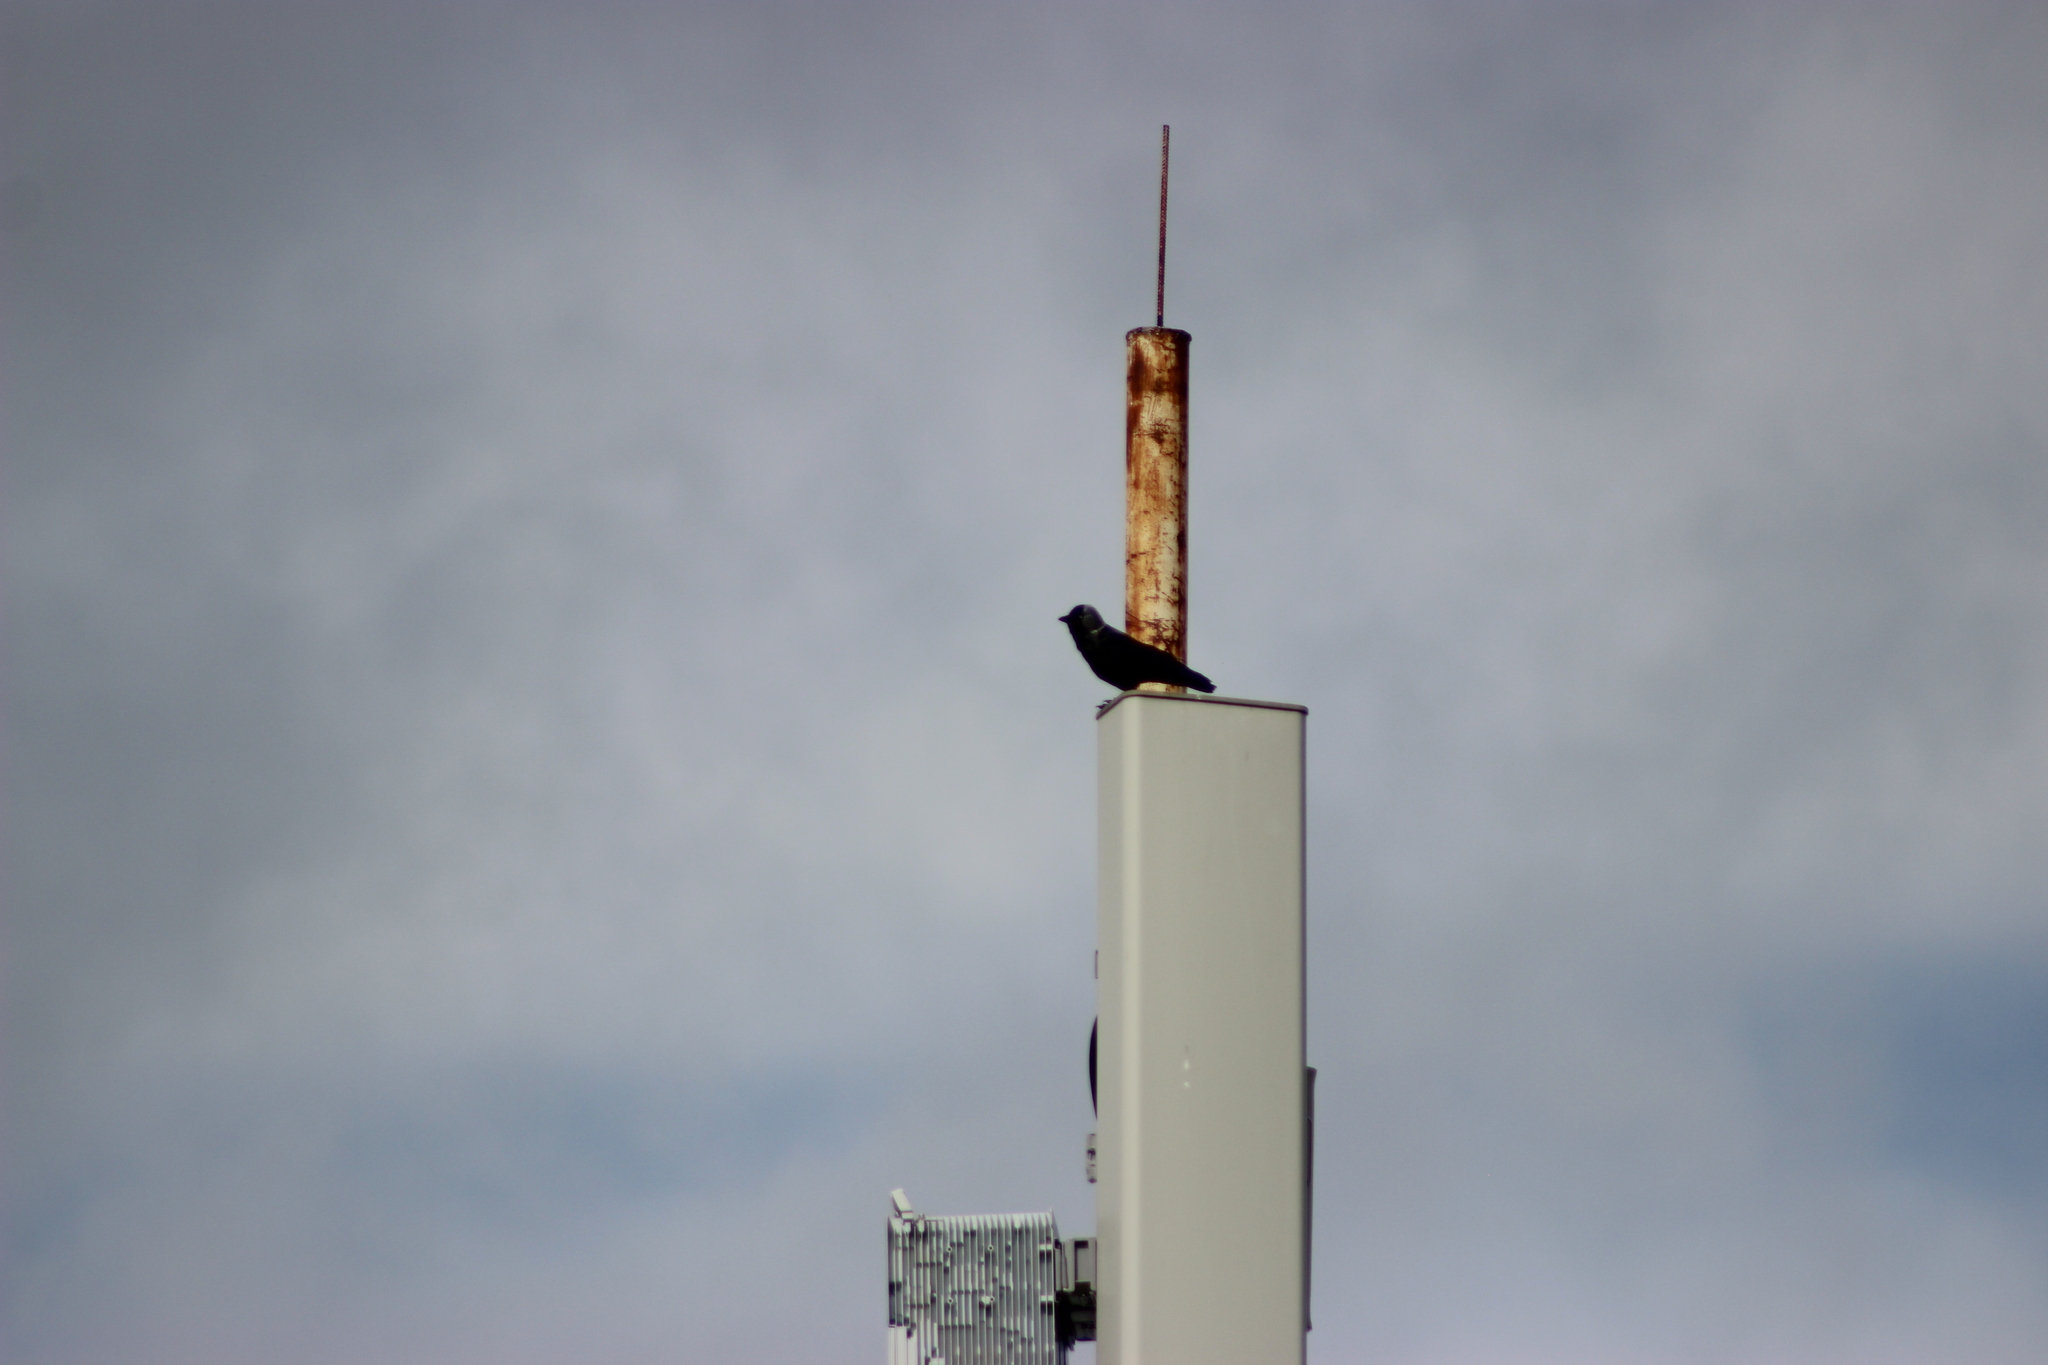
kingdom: Animalia
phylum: Chordata
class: Aves
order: Passeriformes
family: Corvidae
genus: Coloeus
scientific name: Coloeus monedula
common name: Western jackdaw
